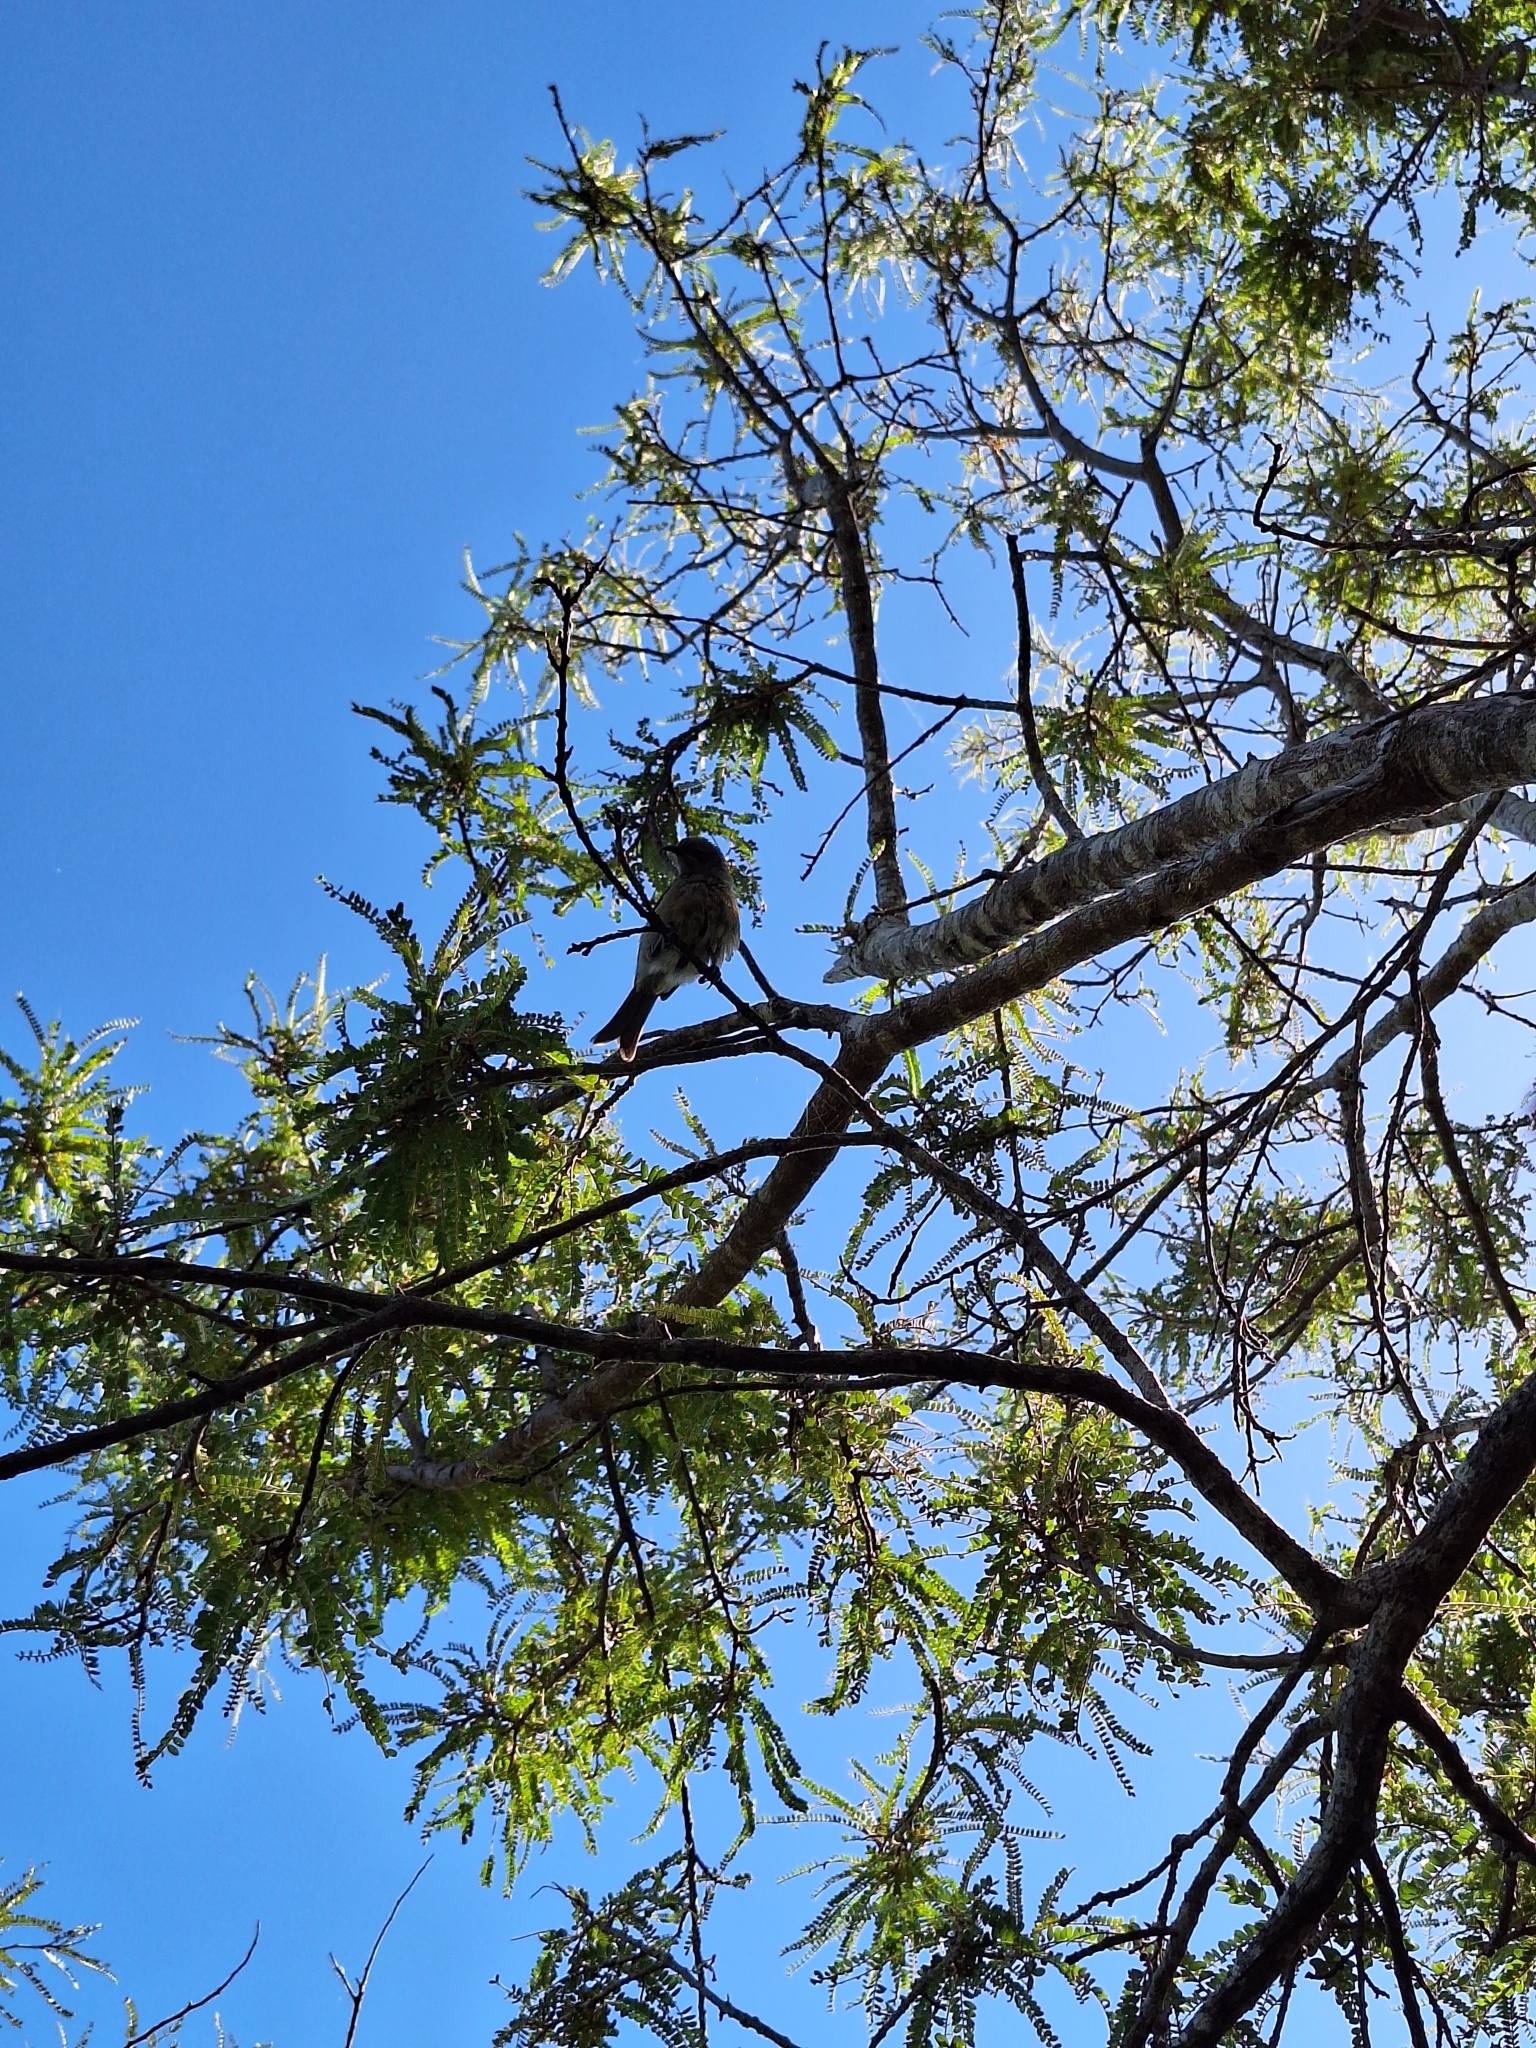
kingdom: Animalia
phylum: Chordata
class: Aves
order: Passeriformes
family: Meliphagidae
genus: Anthornis
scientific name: Anthornis melanura
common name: New zealand bellbird
